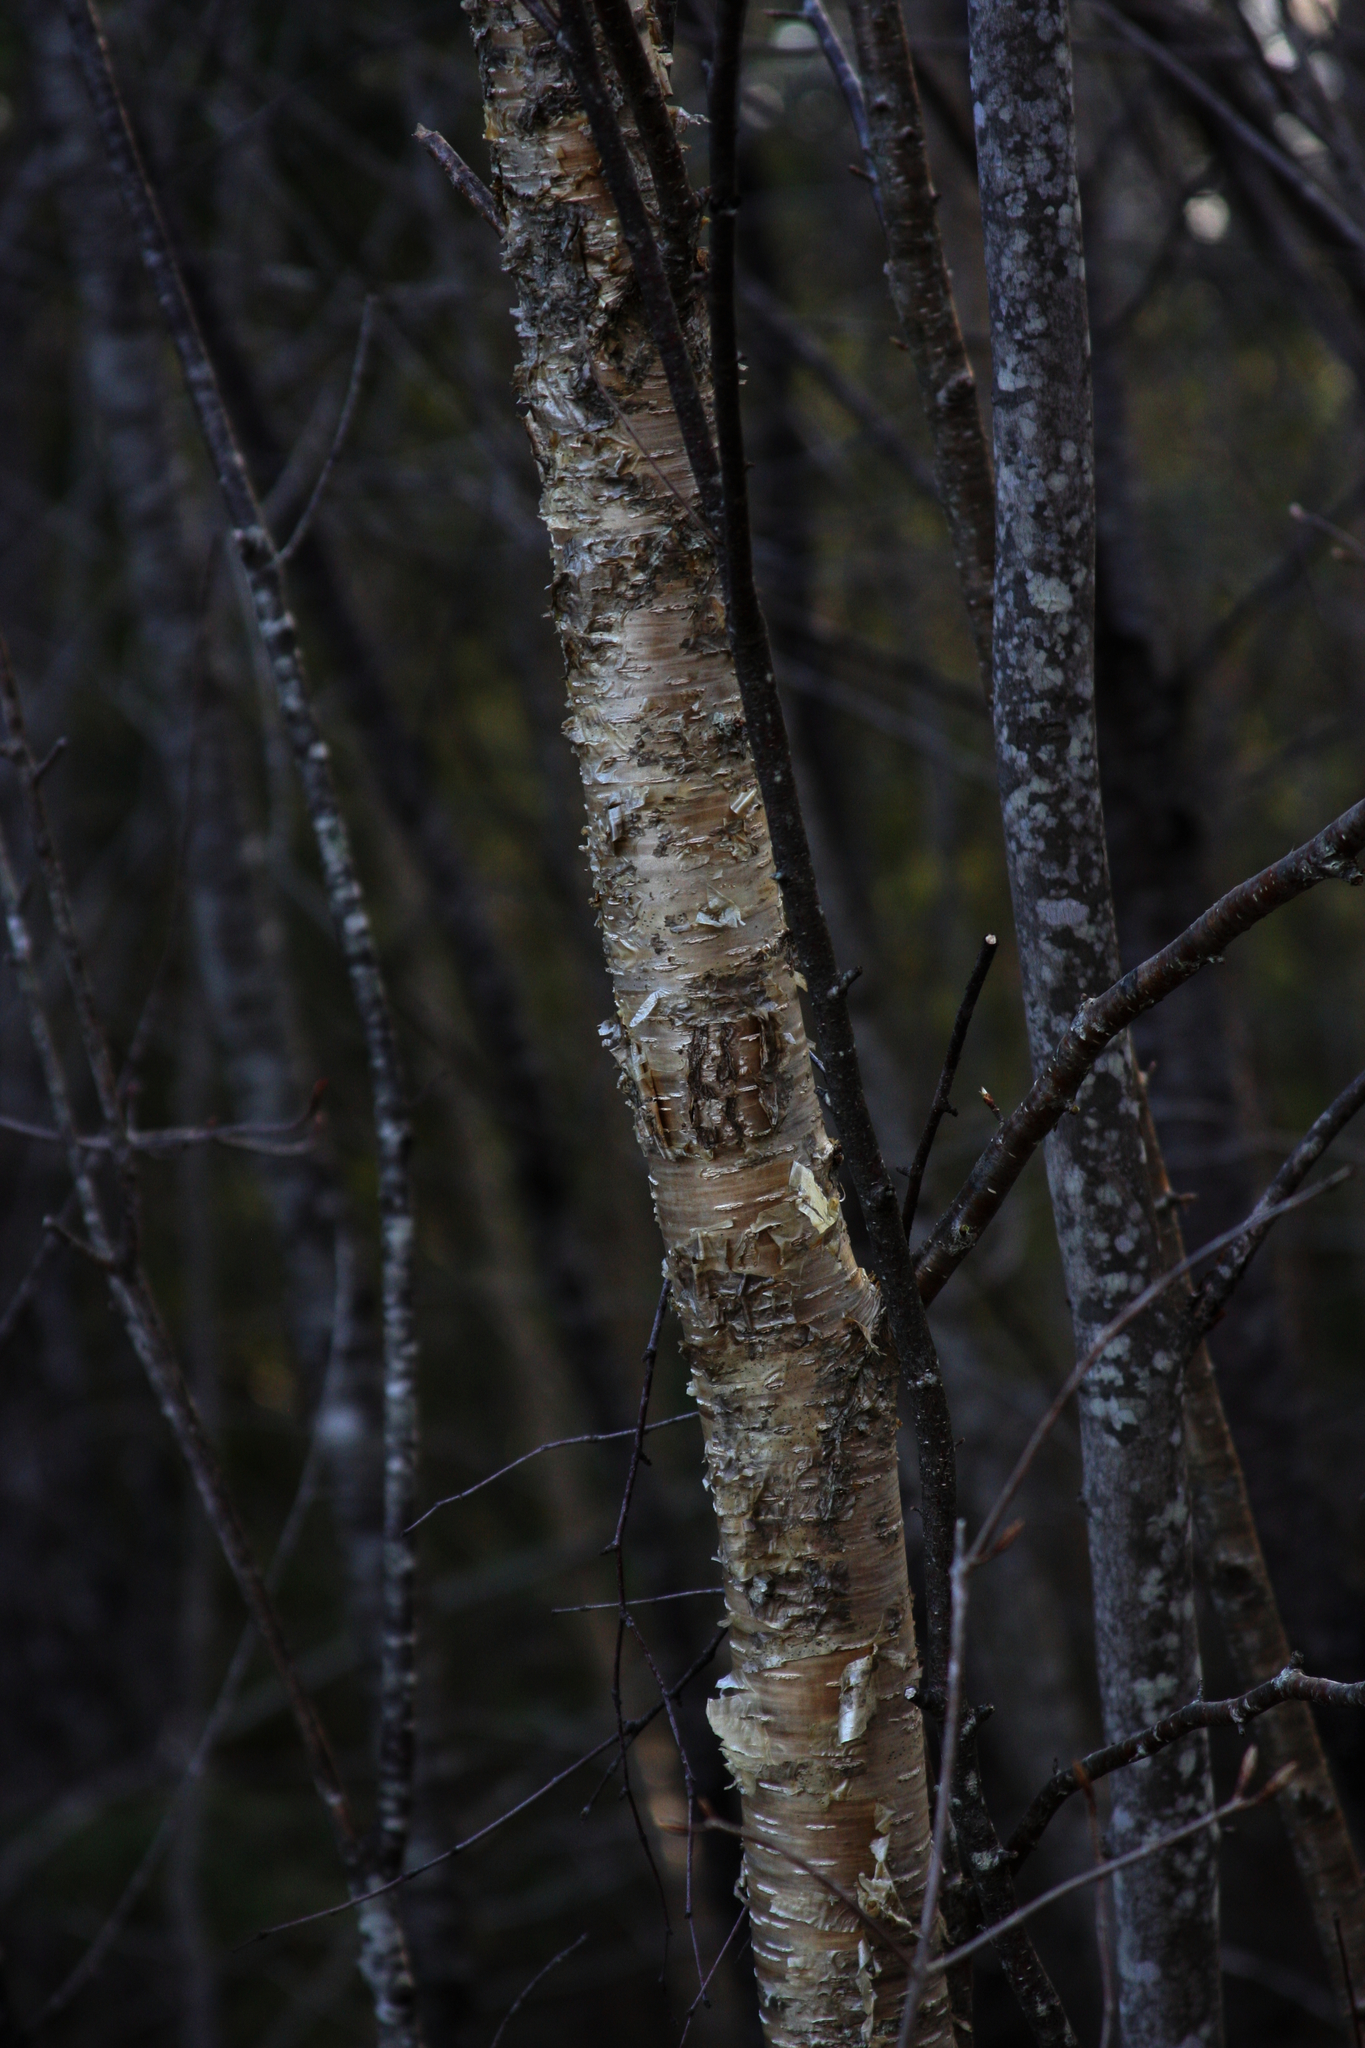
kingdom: Plantae
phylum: Tracheophyta
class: Magnoliopsida
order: Fagales
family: Betulaceae
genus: Betula
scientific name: Betula alleghaniensis
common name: Yellow birch
